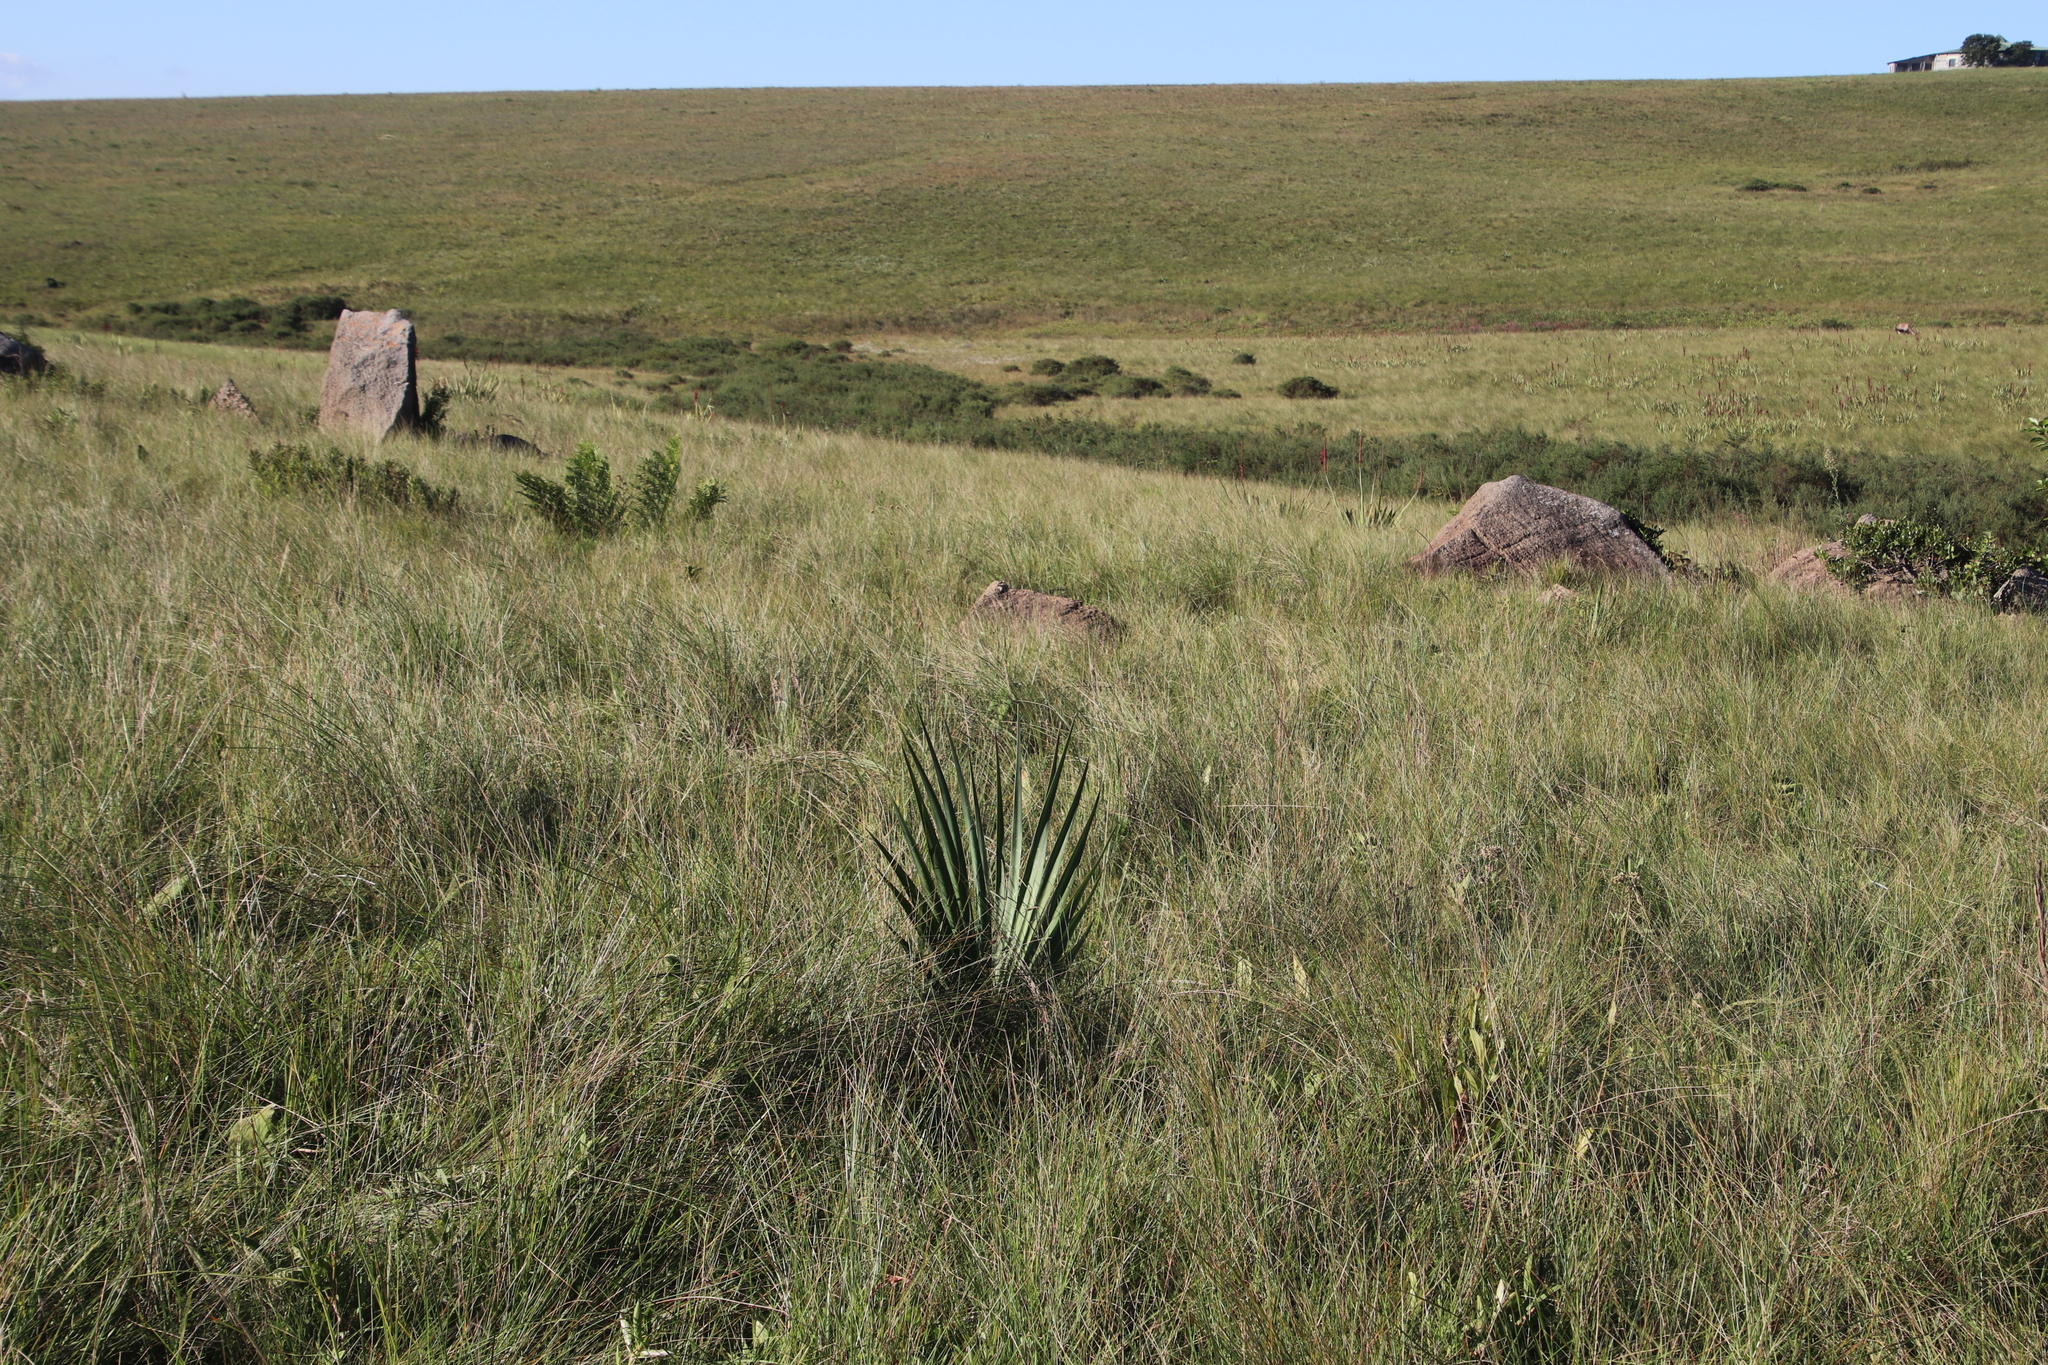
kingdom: Plantae
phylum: Tracheophyta
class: Liliopsida
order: Asparagales
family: Amaryllidaceae
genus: Boophone
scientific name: Boophone disticha
